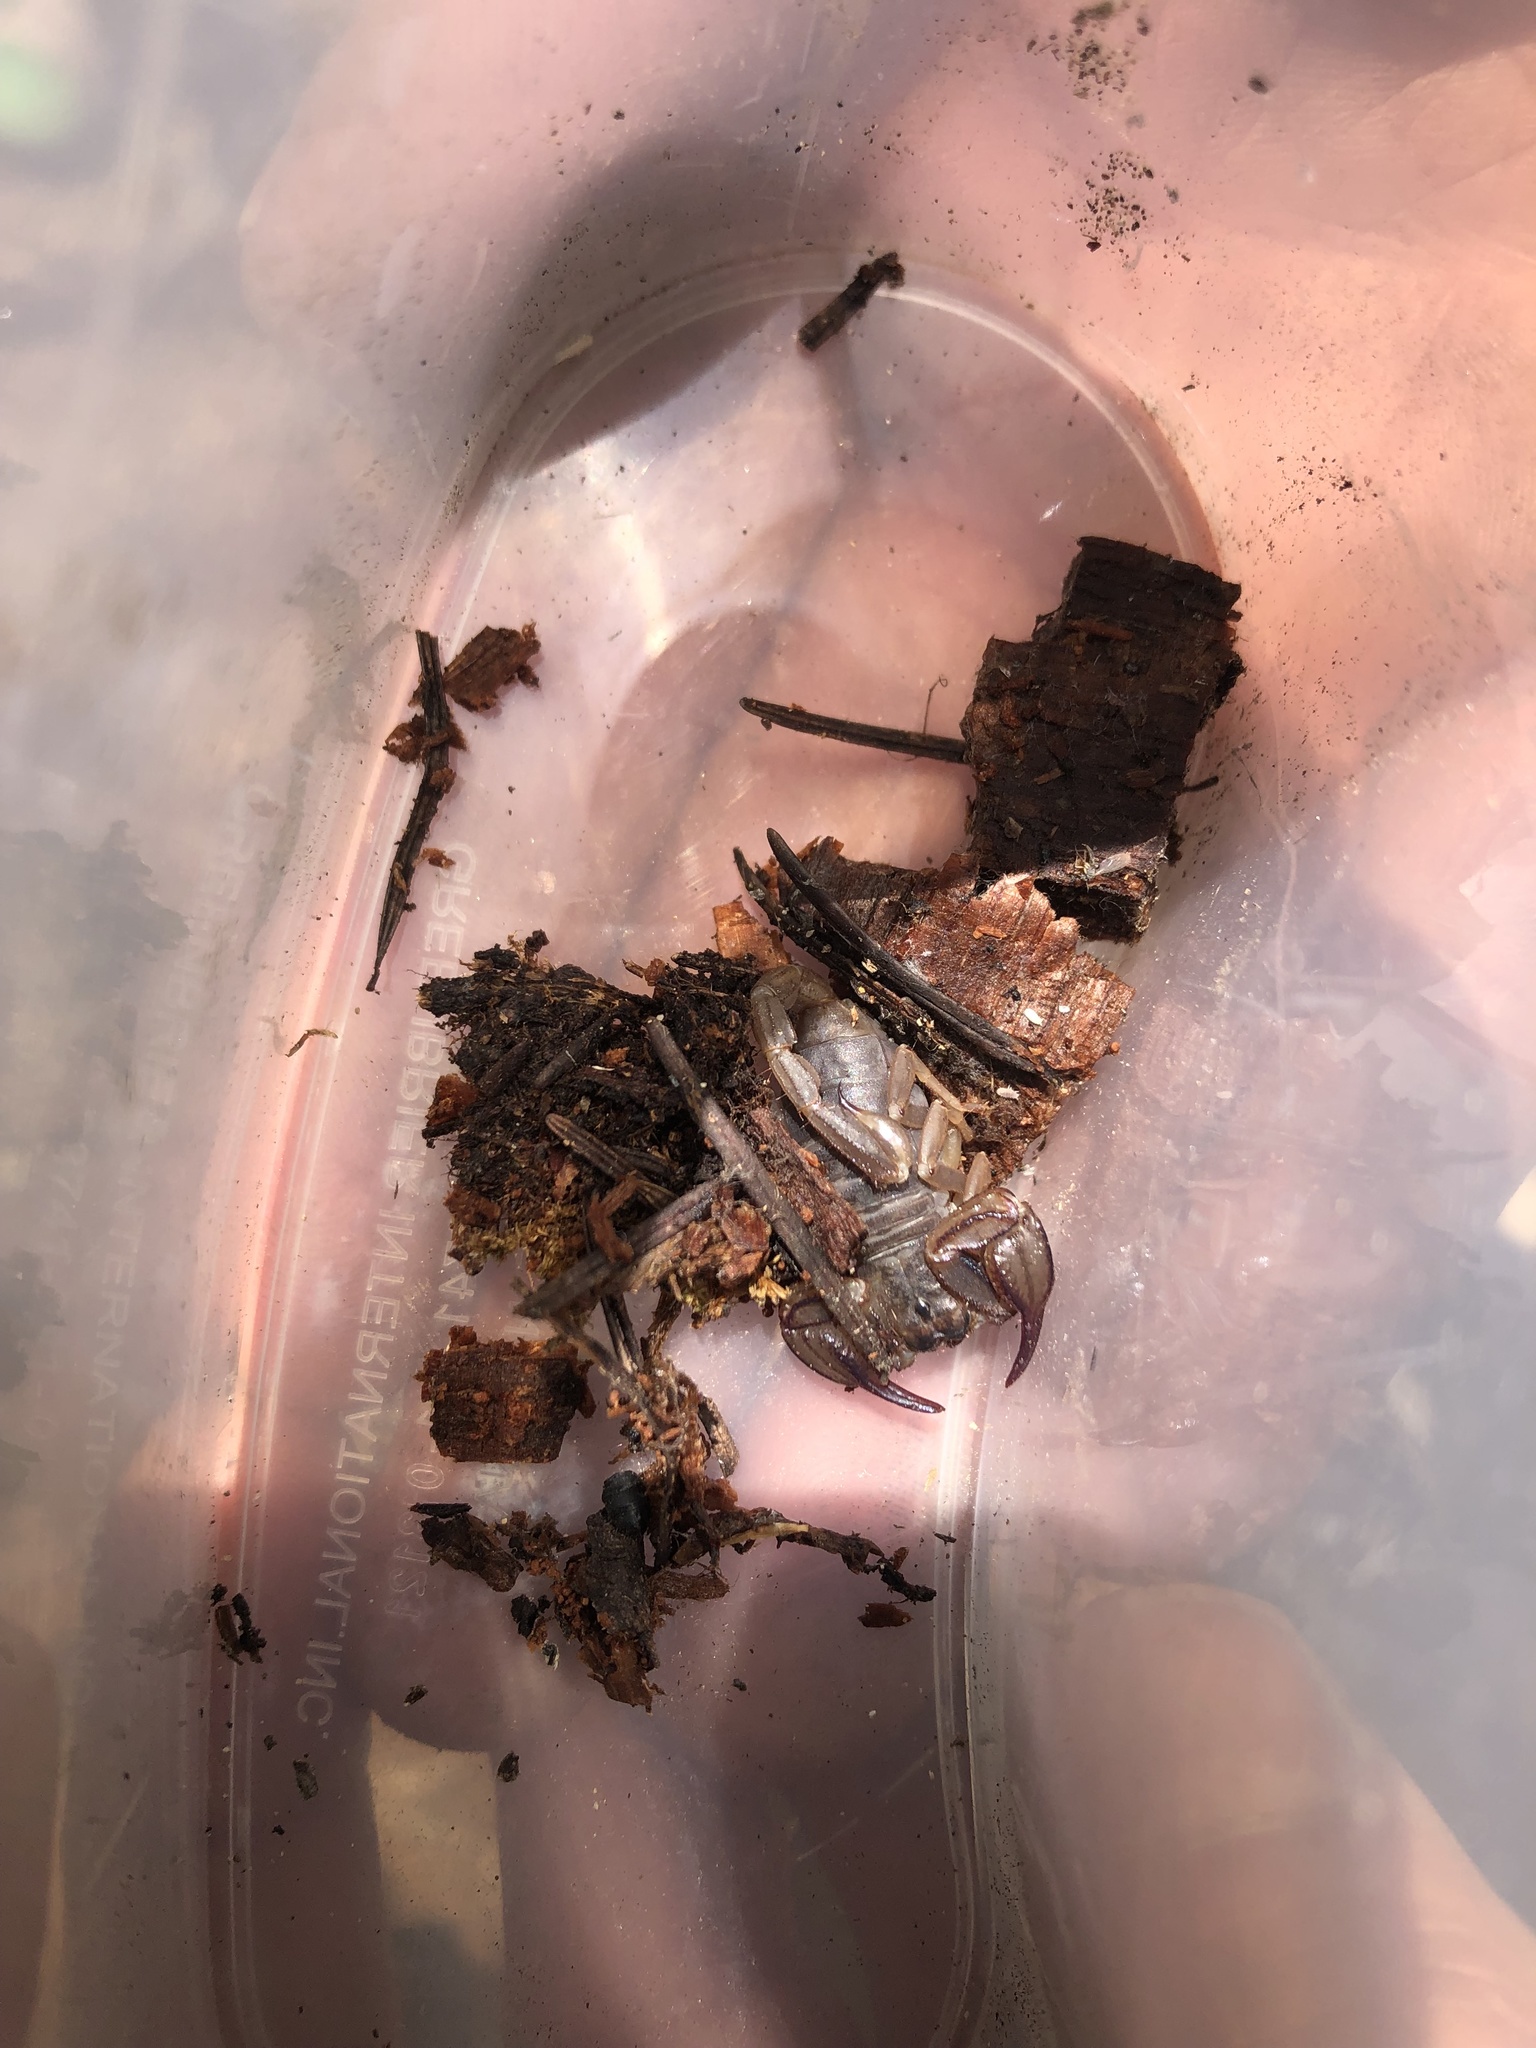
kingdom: Animalia
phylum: Arthropoda
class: Arachnida
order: Scorpiones
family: Chactidae
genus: Uroctonus
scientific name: Uroctonus mordax
